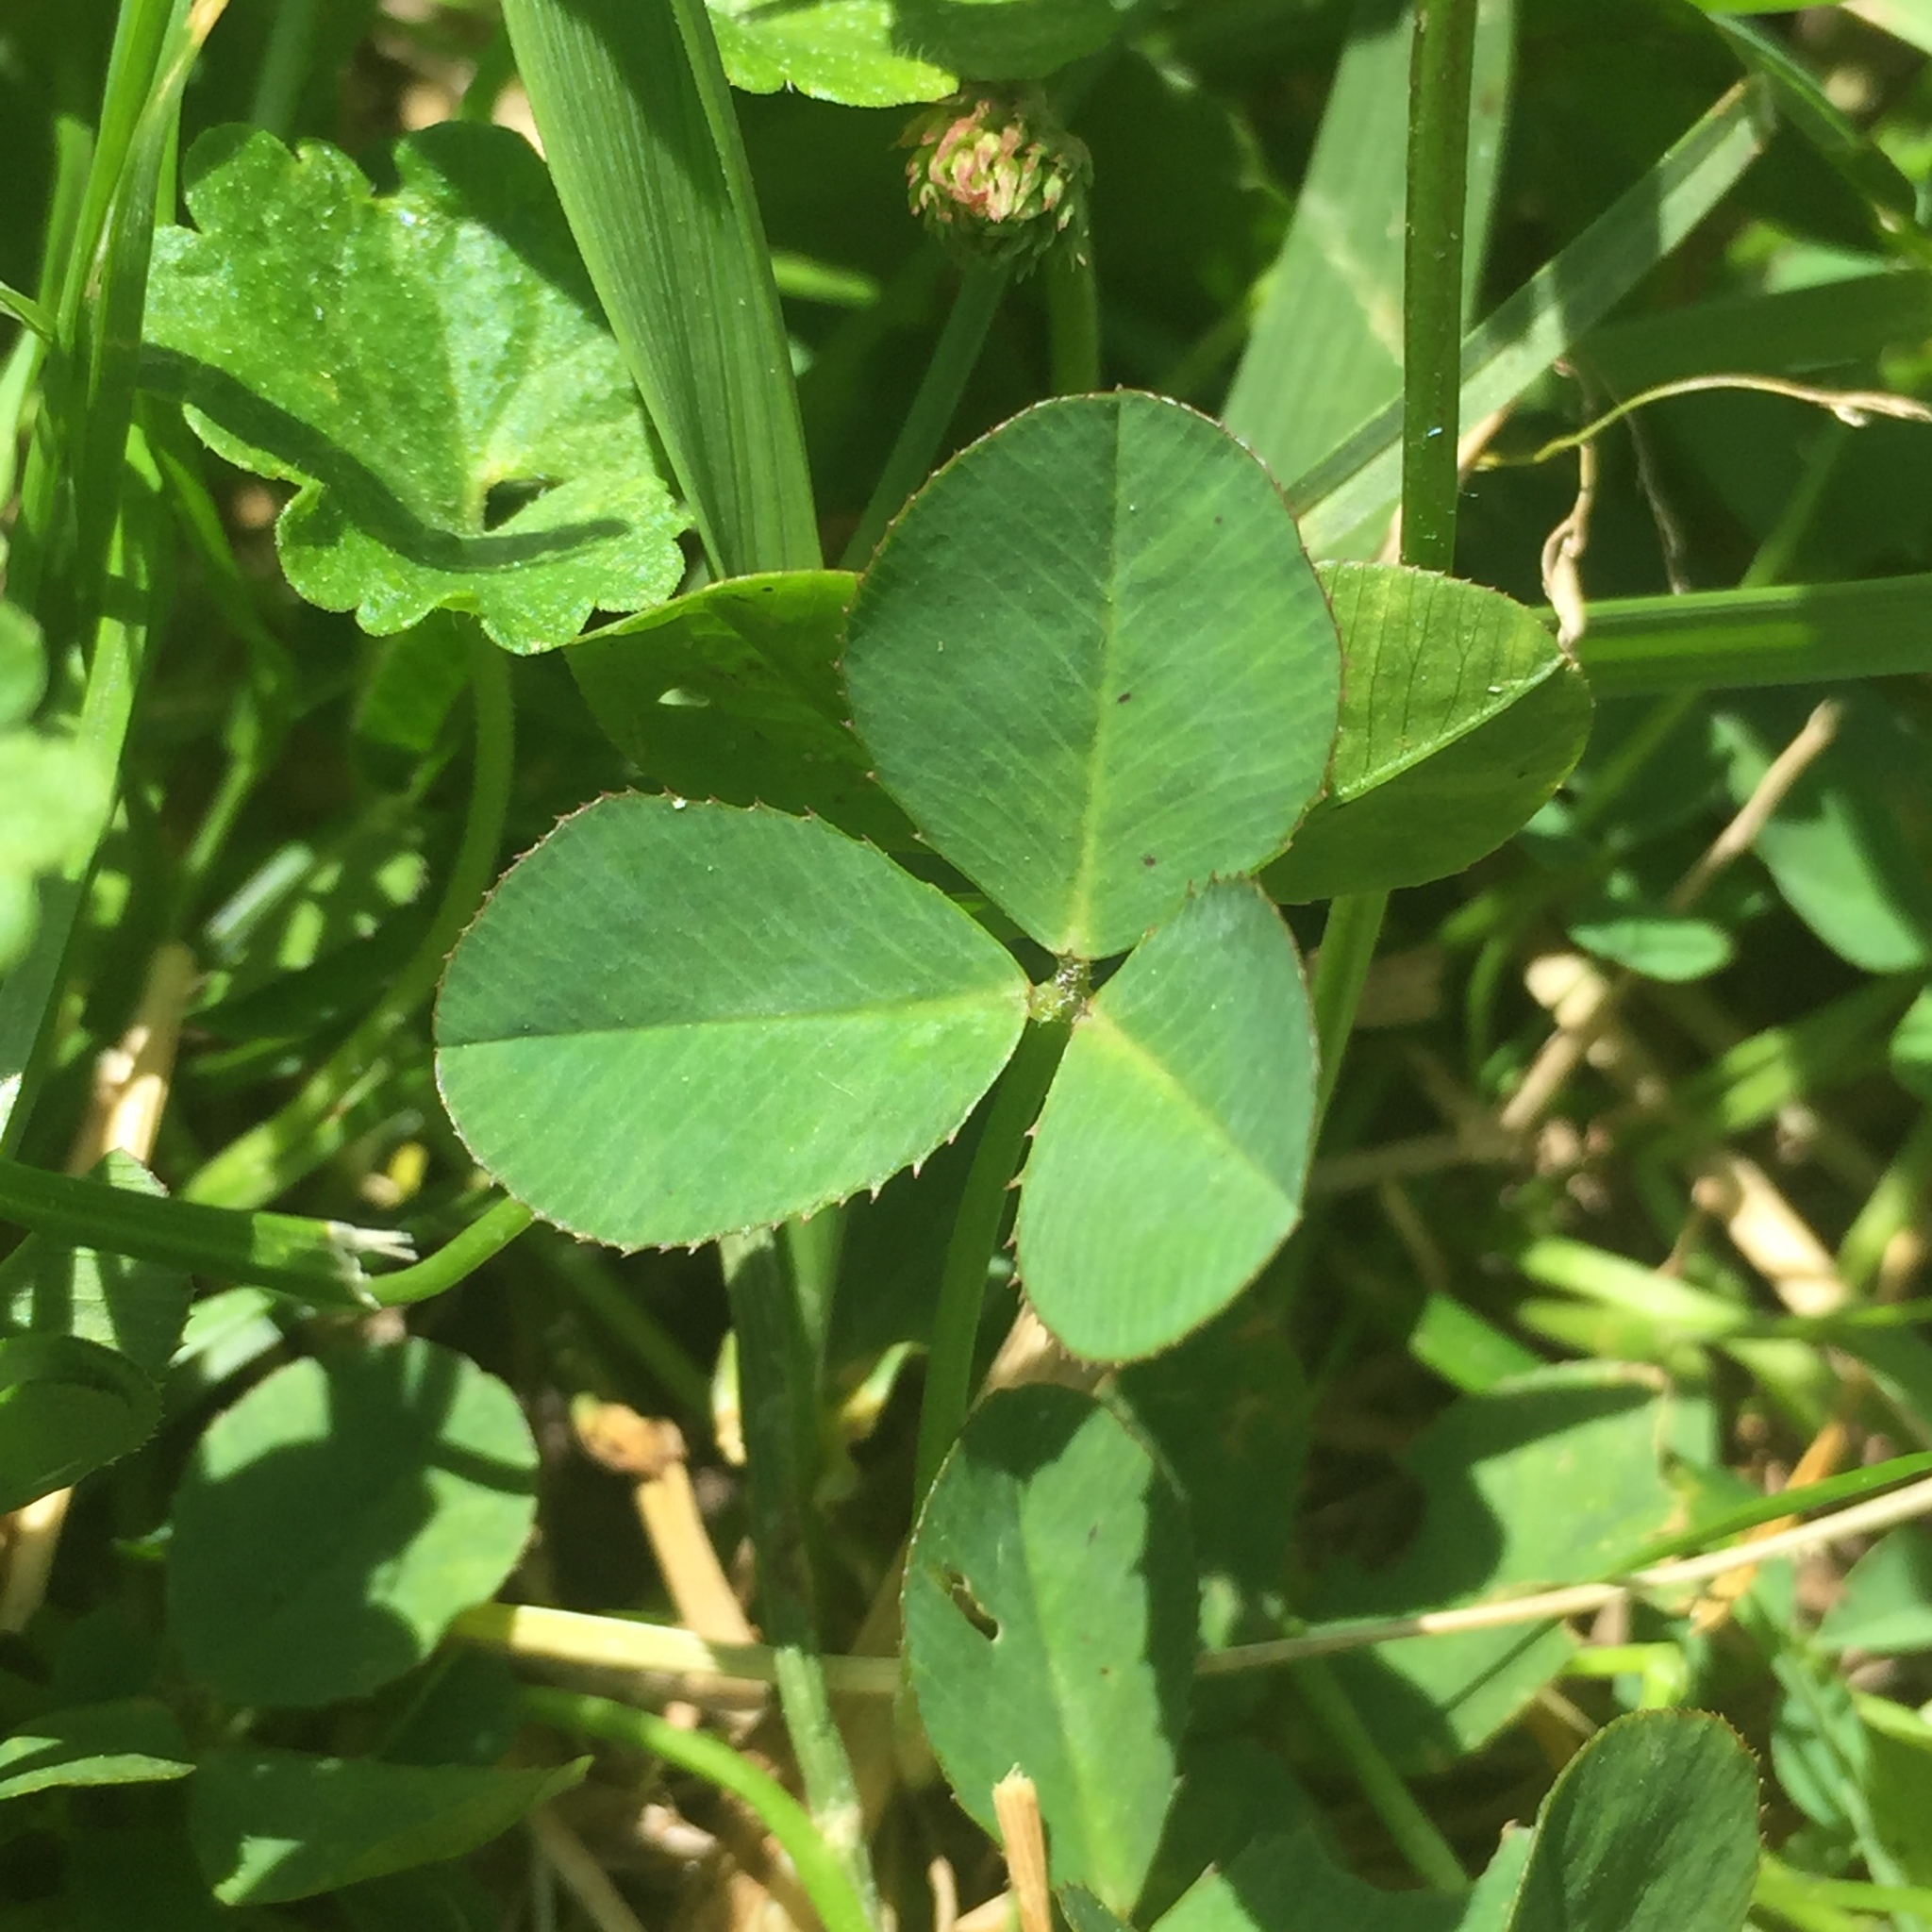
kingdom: Plantae
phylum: Tracheophyta
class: Magnoliopsida
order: Fabales
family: Fabaceae
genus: Trifolium
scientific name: Trifolium repens
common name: White clover
